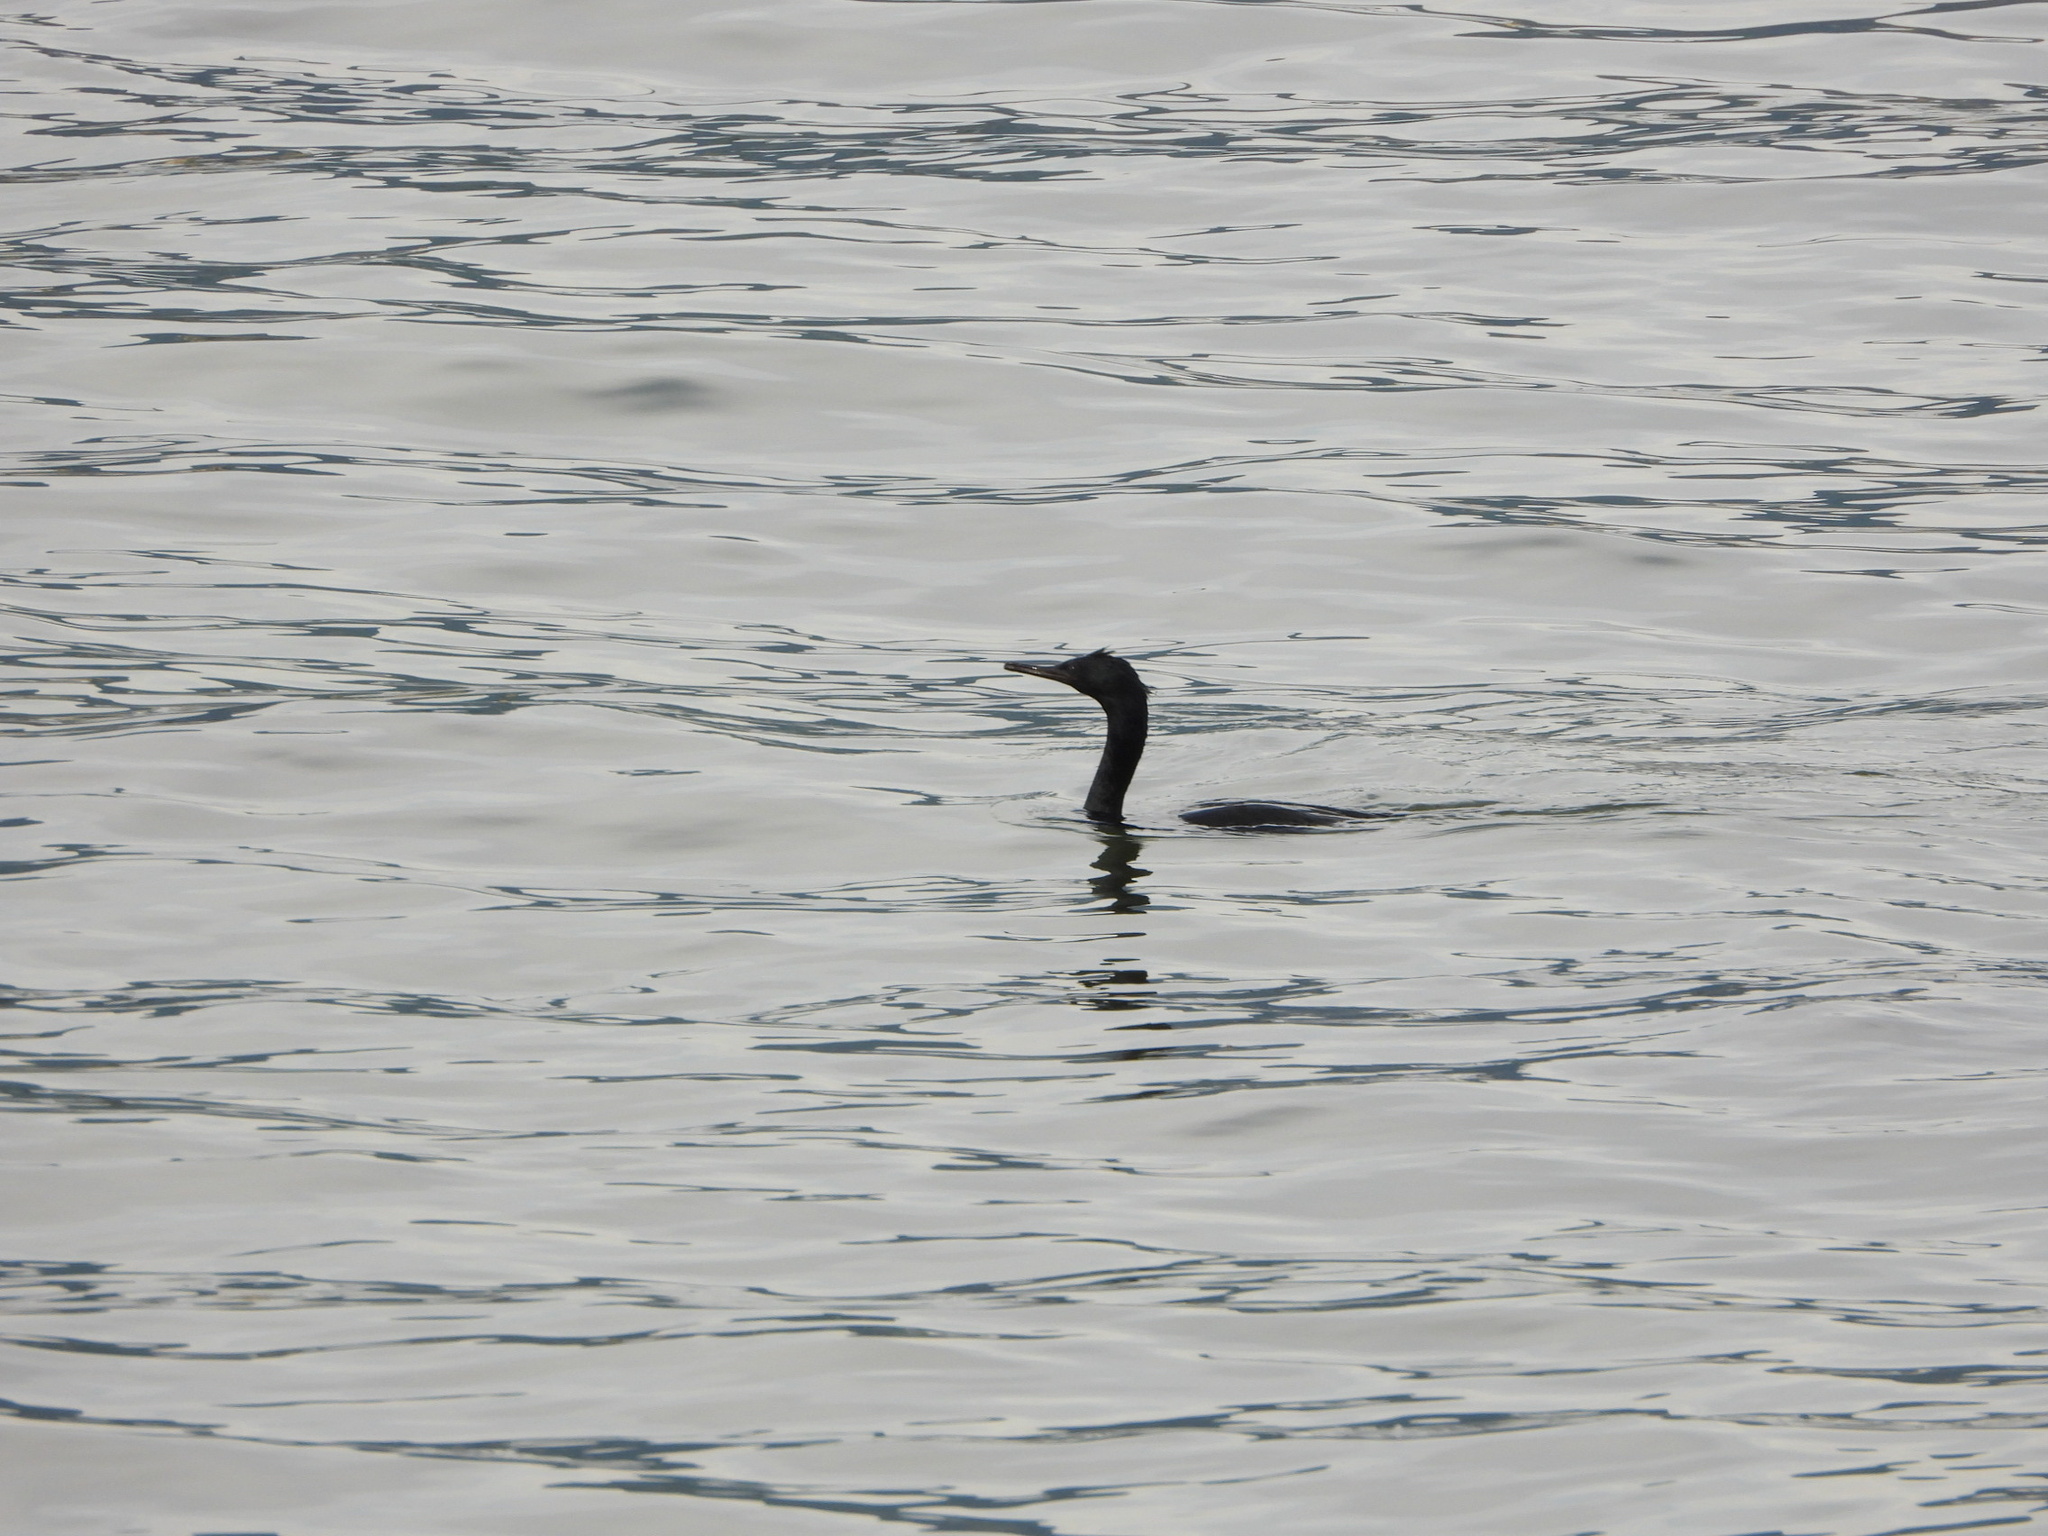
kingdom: Animalia
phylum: Chordata
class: Aves
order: Suliformes
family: Phalacrocoracidae
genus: Phalacrocorax
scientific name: Phalacrocorax pelagicus
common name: Pelagic cormorant
